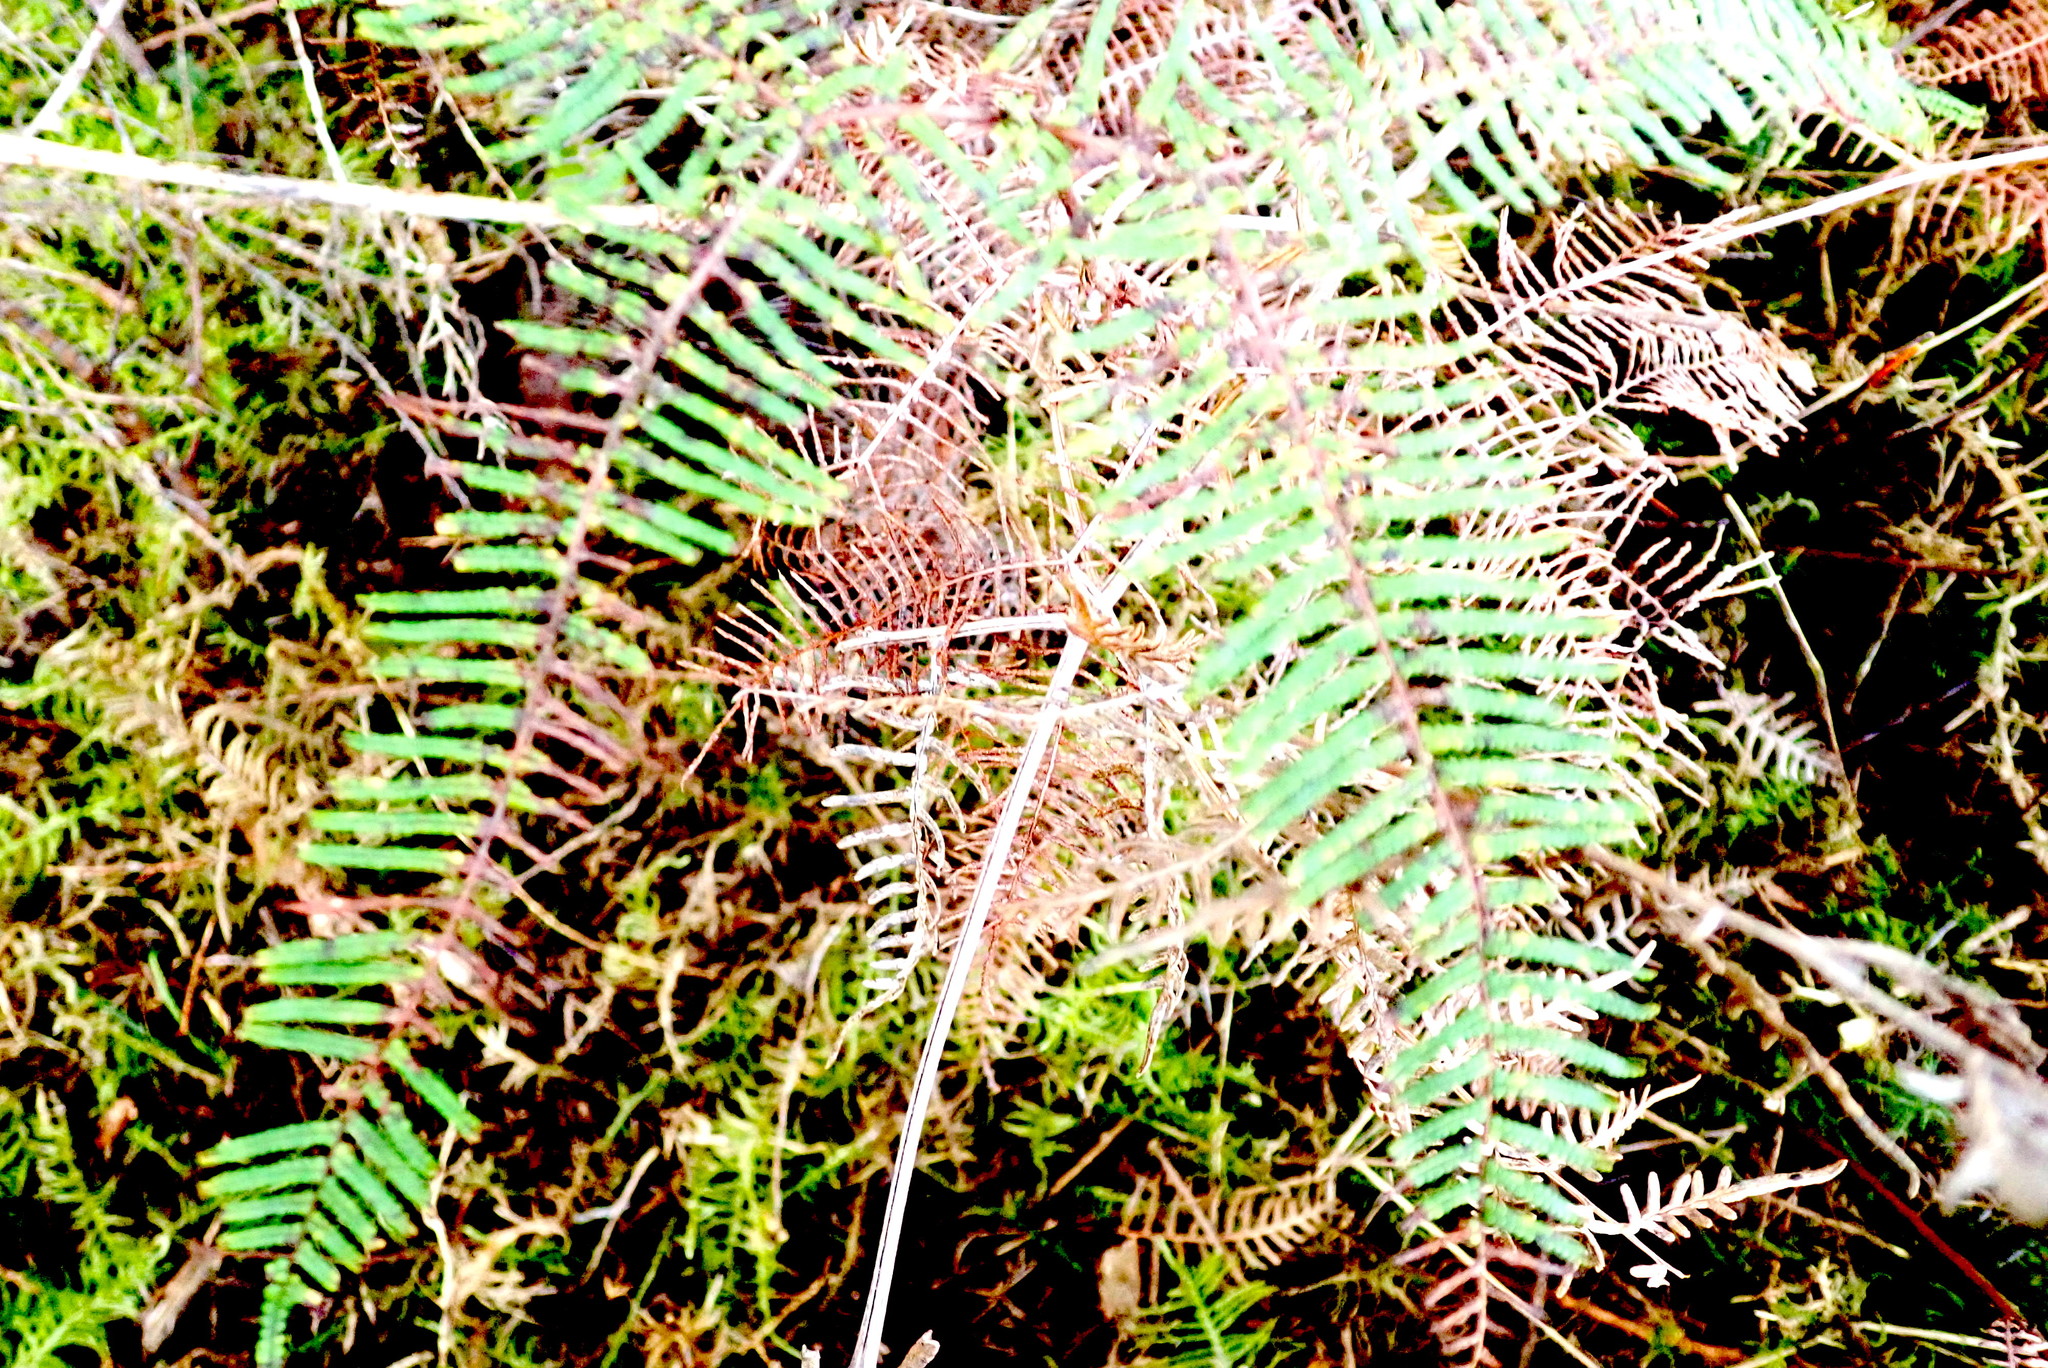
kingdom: Plantae
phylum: Tracheophyta
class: Polypodiopsida
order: Gleicheniales
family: Gleicheniaceae
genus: Gleichenia
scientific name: Gleichenia dicarpa
